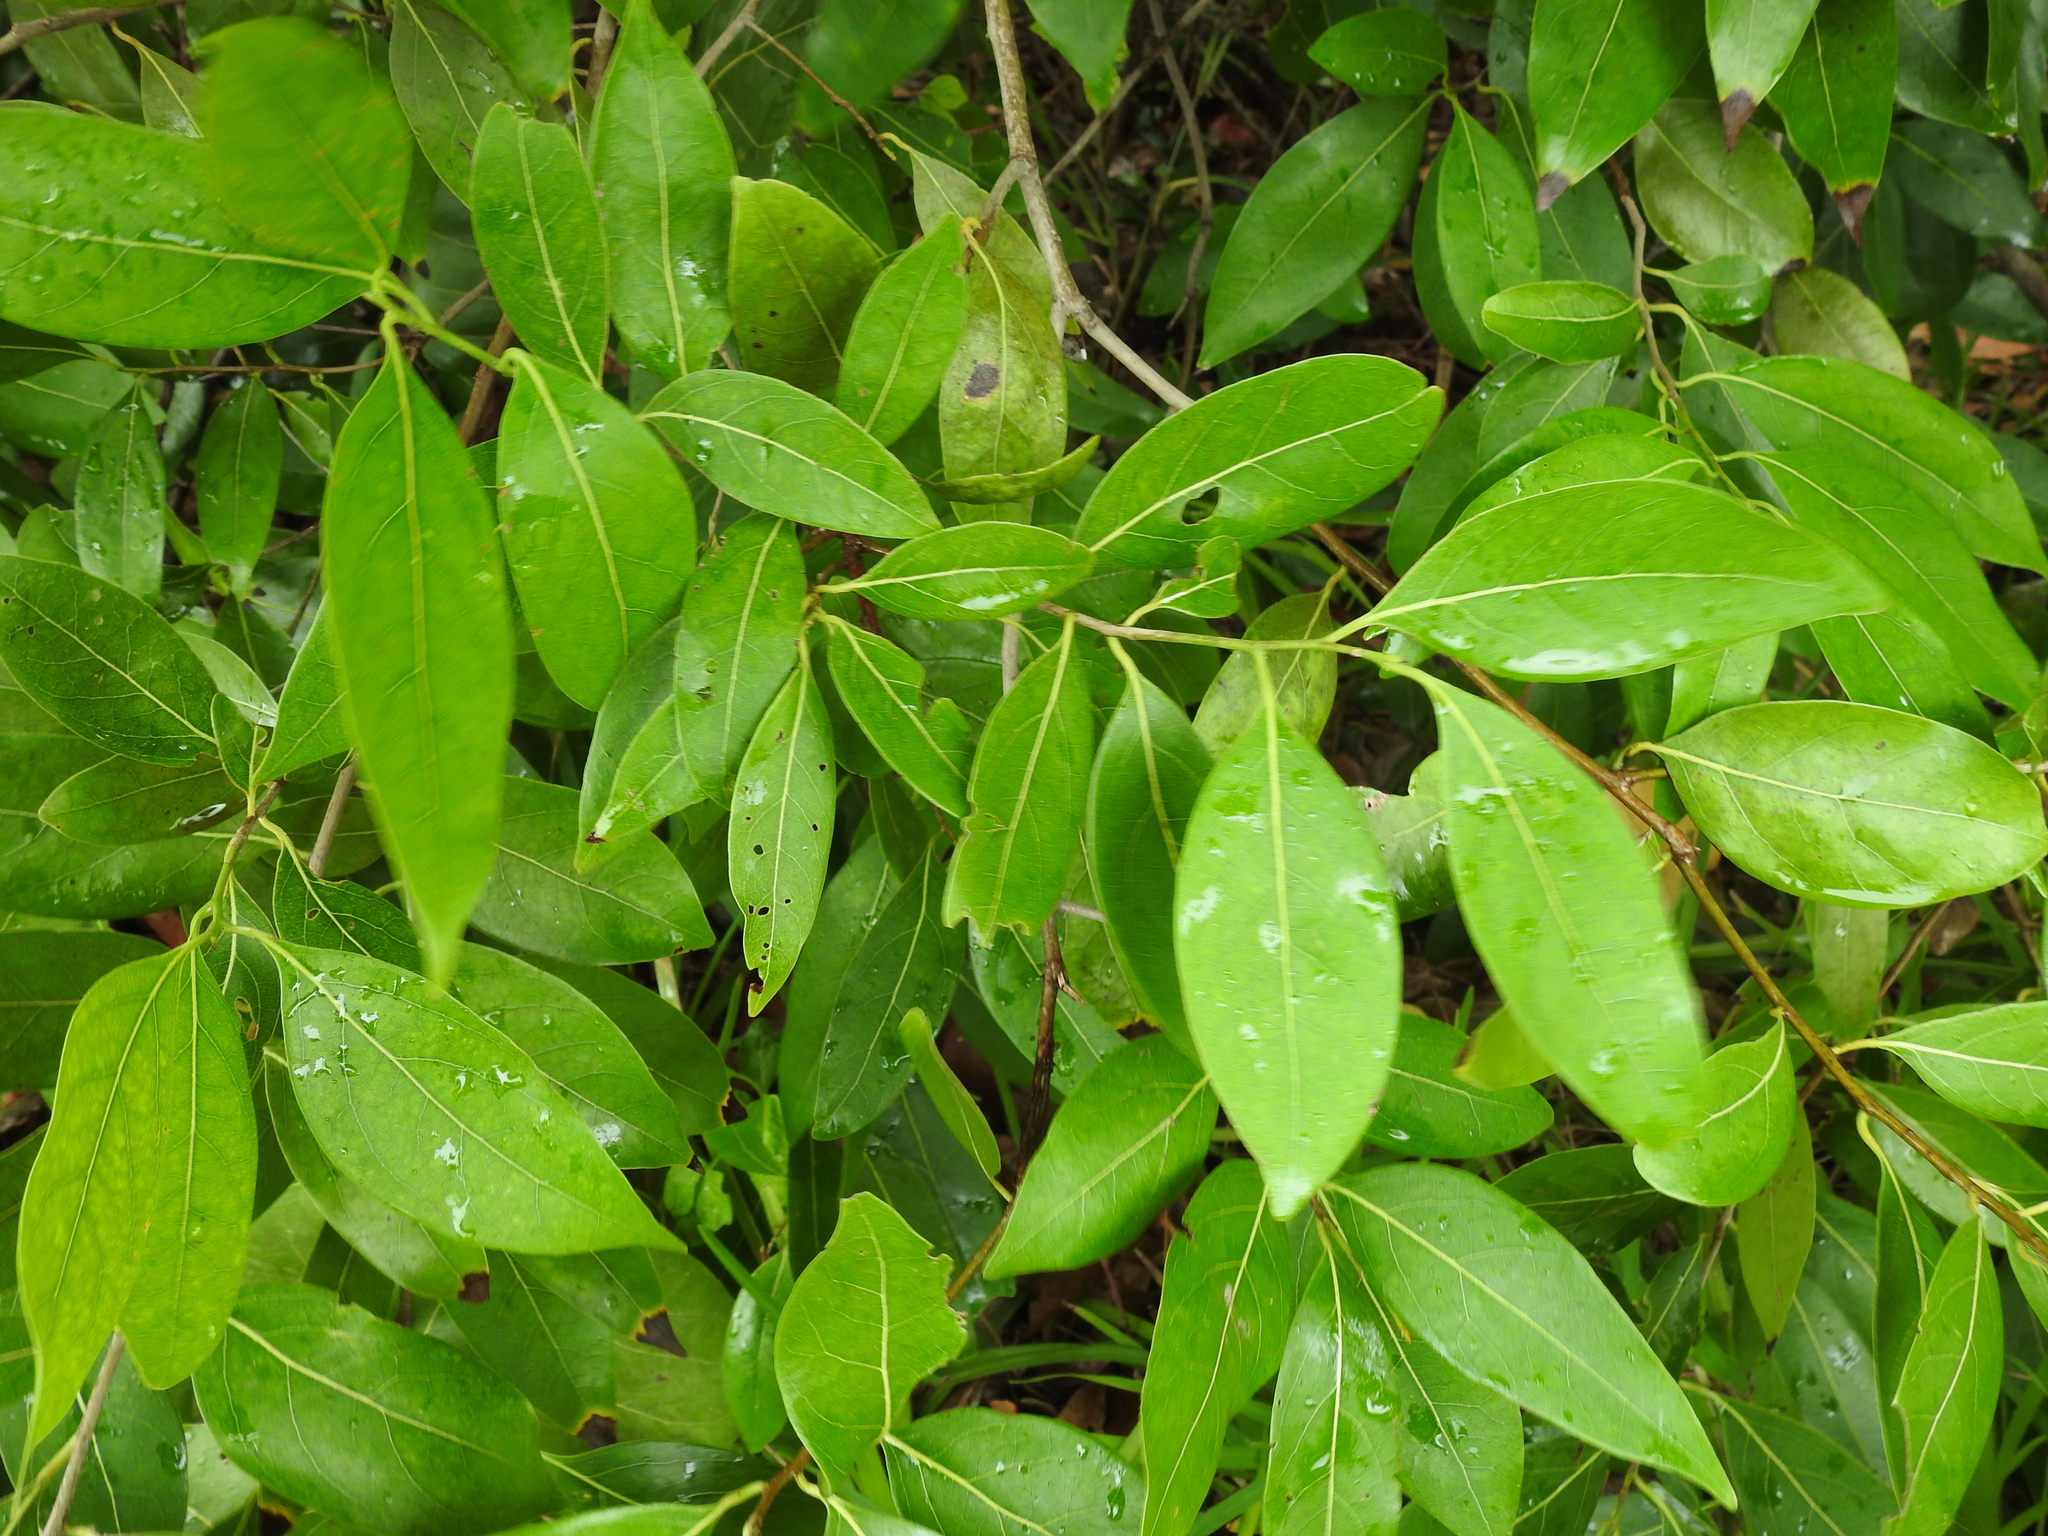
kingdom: Plantae
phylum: Tracheophyta
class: Magnoliopsida
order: Laurales
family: Lauraceae
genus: Damburneya
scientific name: Damburneya
